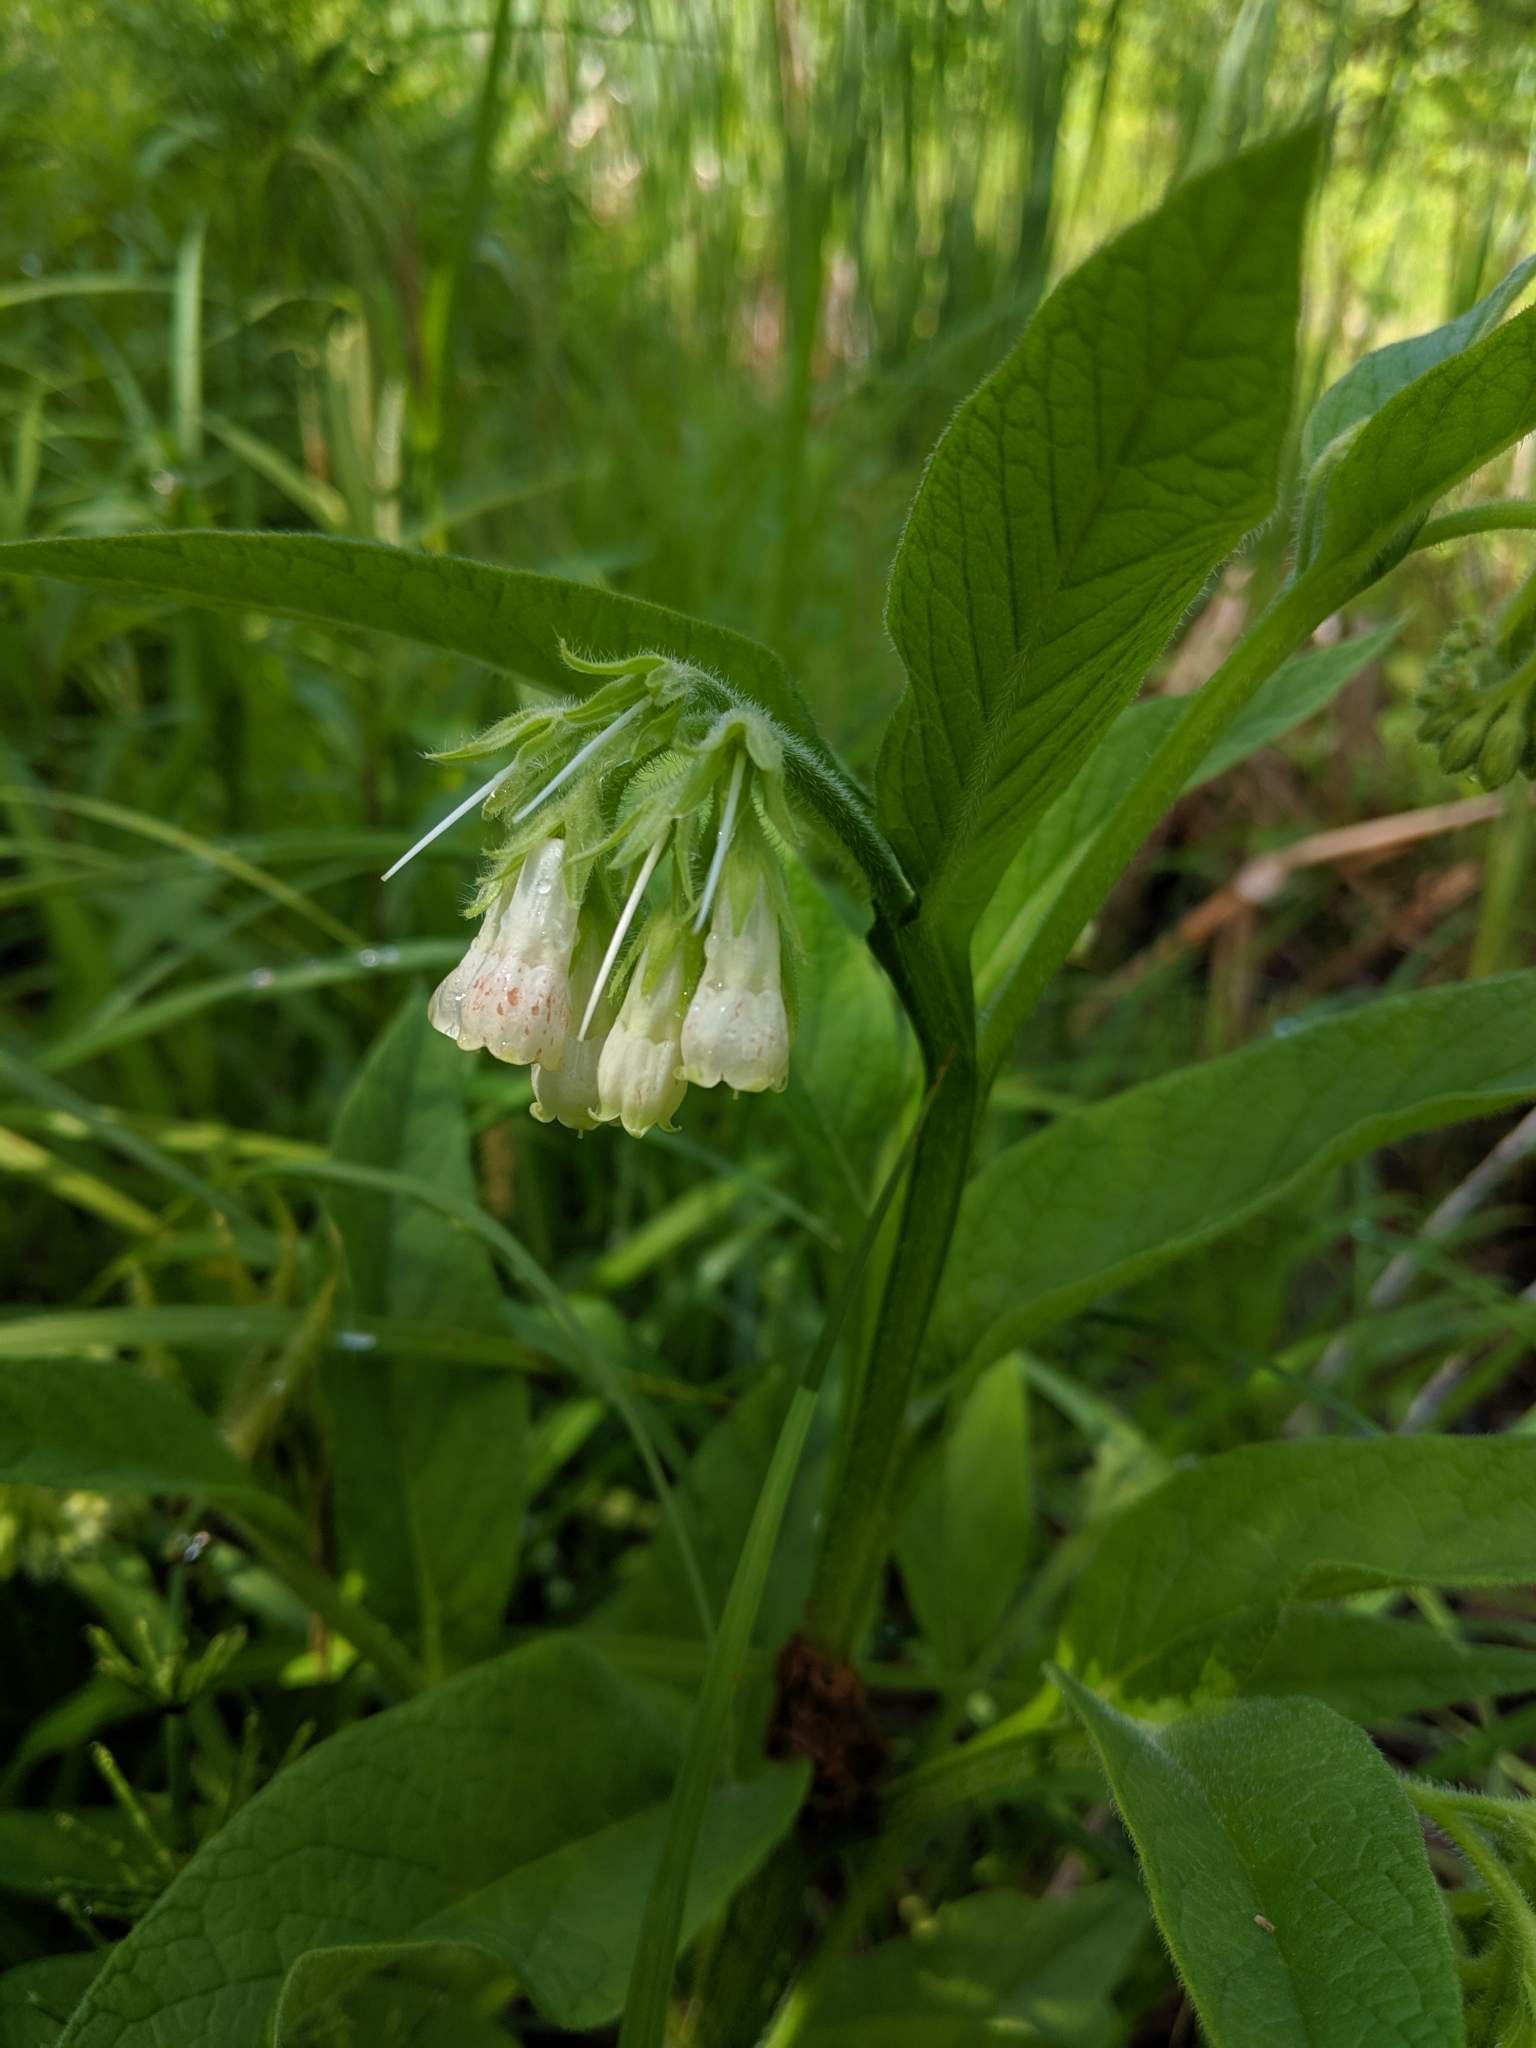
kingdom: Plantae
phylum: Tracheophyta
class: Magnoliopsida
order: Boraginales
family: Boraginaceae
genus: Symphytum
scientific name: Symphytum officinale
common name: Common comfrey
